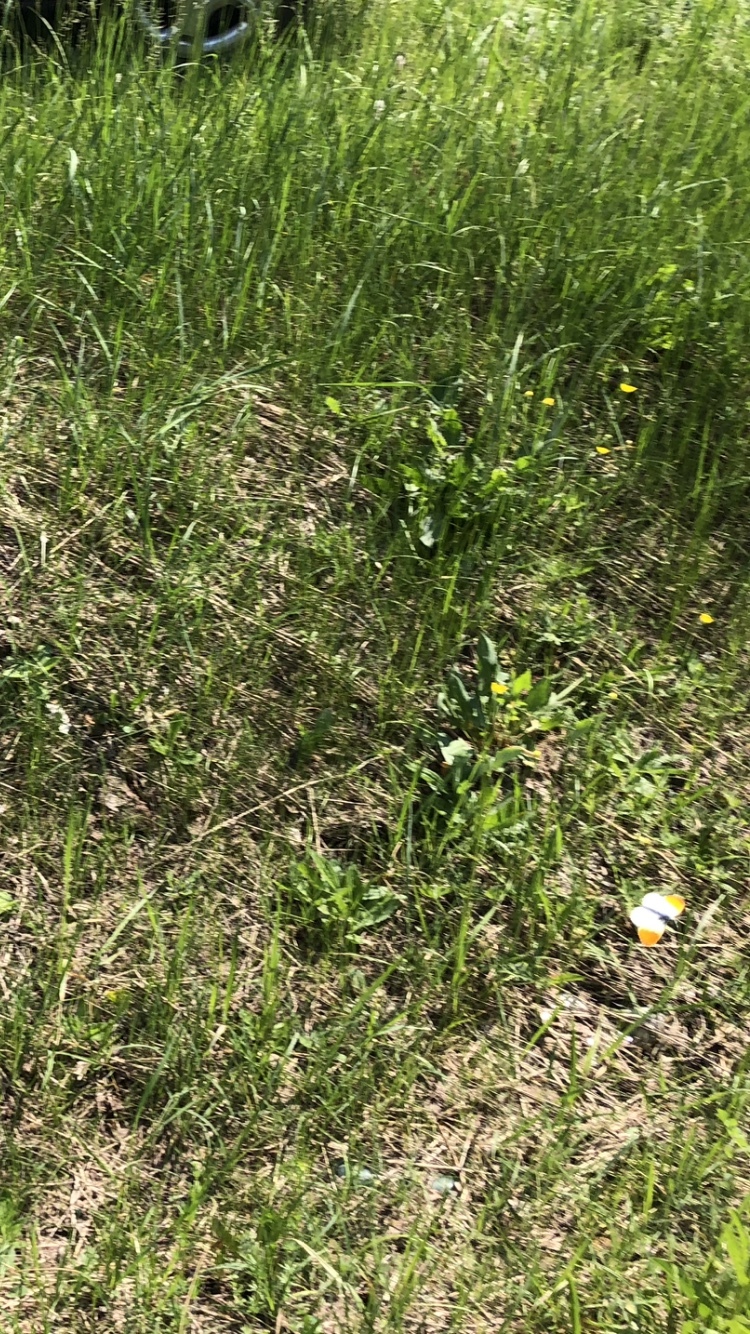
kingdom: Animalia
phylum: Arthropoda
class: Insecta
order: Lepidoptera
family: Pieridae
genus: Anthocharis
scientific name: Anthocharis cardamines
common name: Orange-tip
